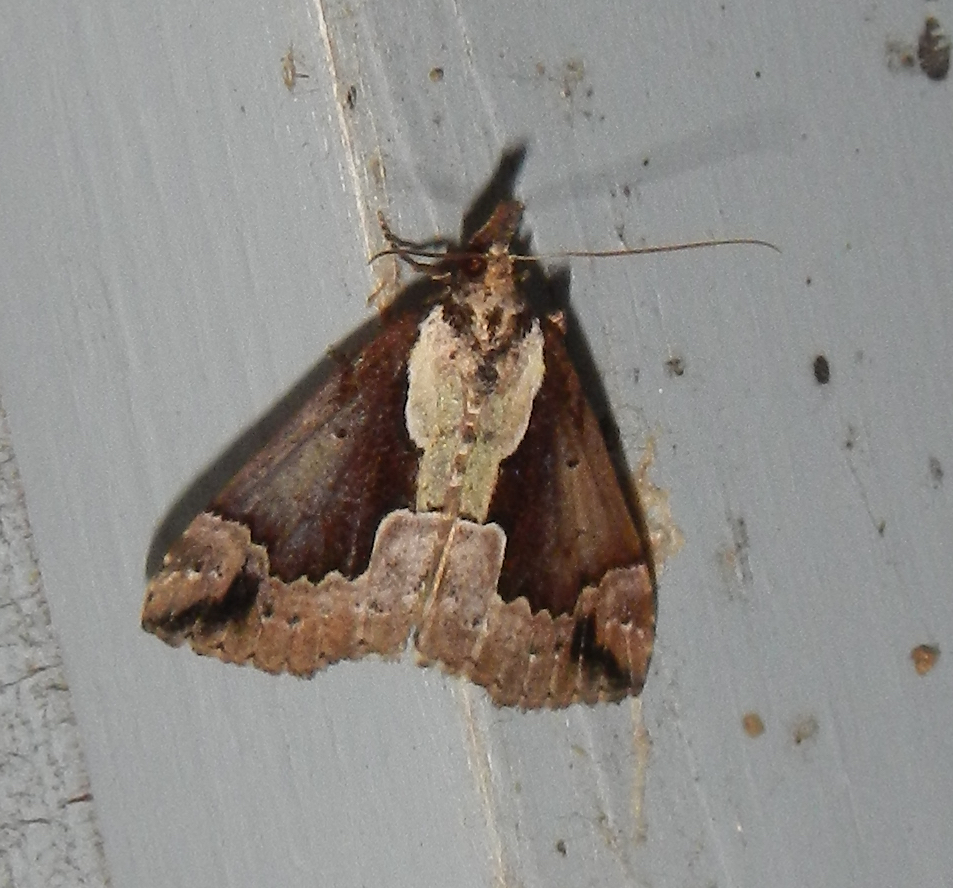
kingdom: Animalia
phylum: Arthropoda
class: Insecta
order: Lepidoptera
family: Erebidae
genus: Hypena
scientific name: Hypena baltimoralis
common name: Baltimore snout
